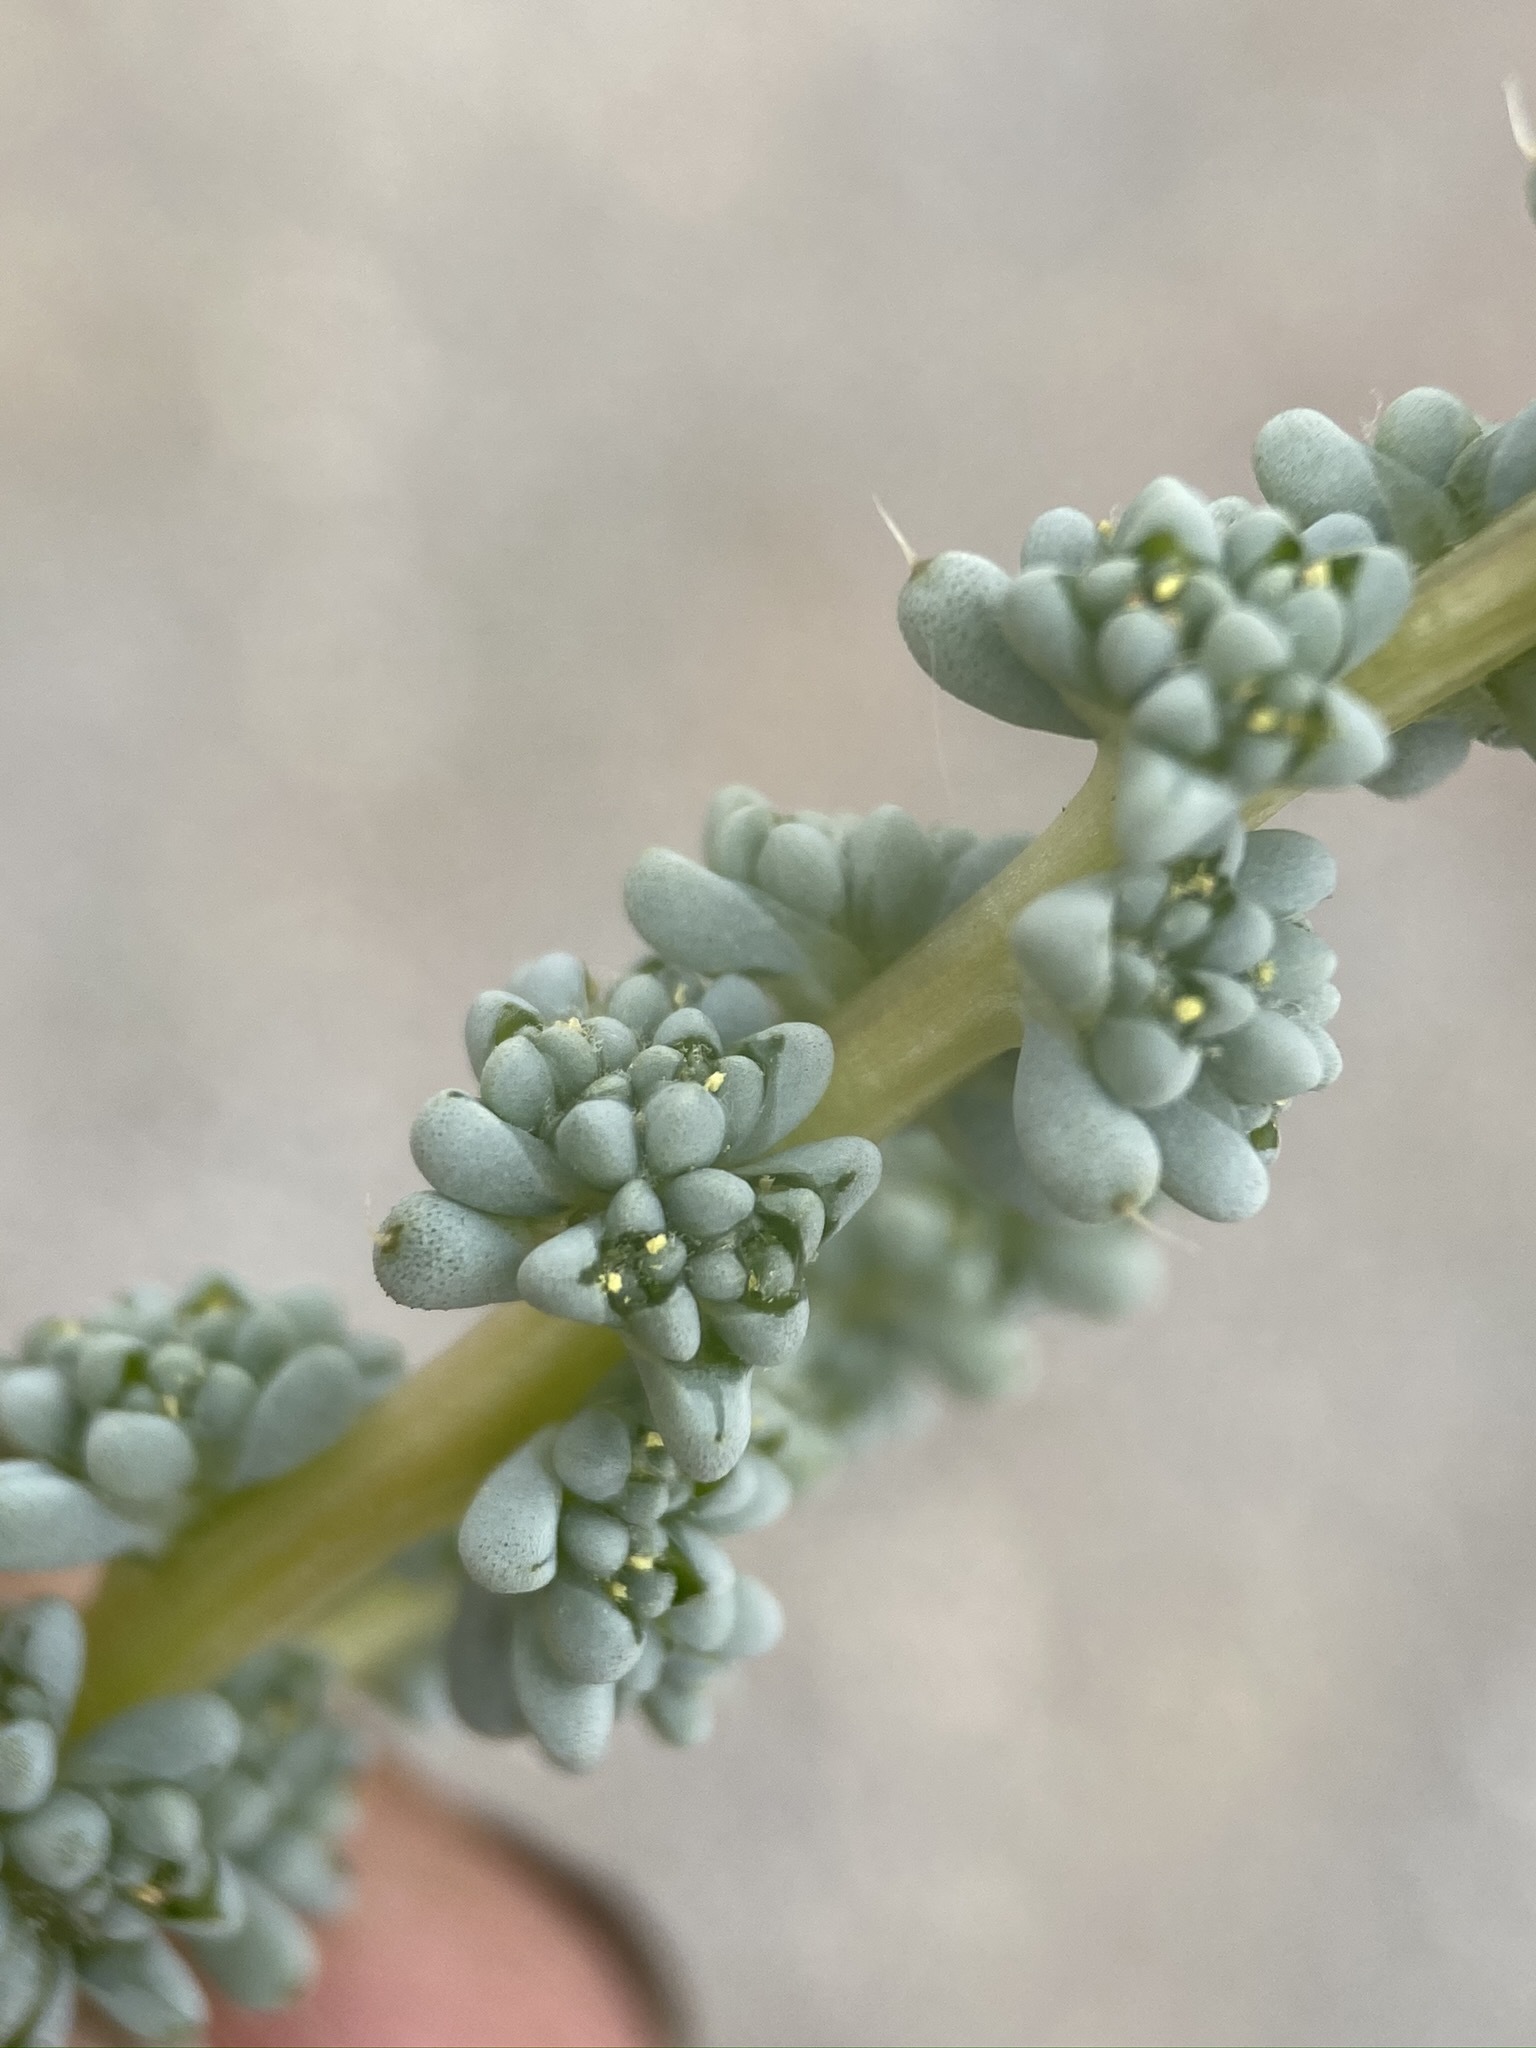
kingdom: Plantae
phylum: Tracheophyta
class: Magnoliopsida
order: Caryophyllales
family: Amaranthaceae
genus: Halogeton
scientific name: Halogeton glomeratus
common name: Saltlover
